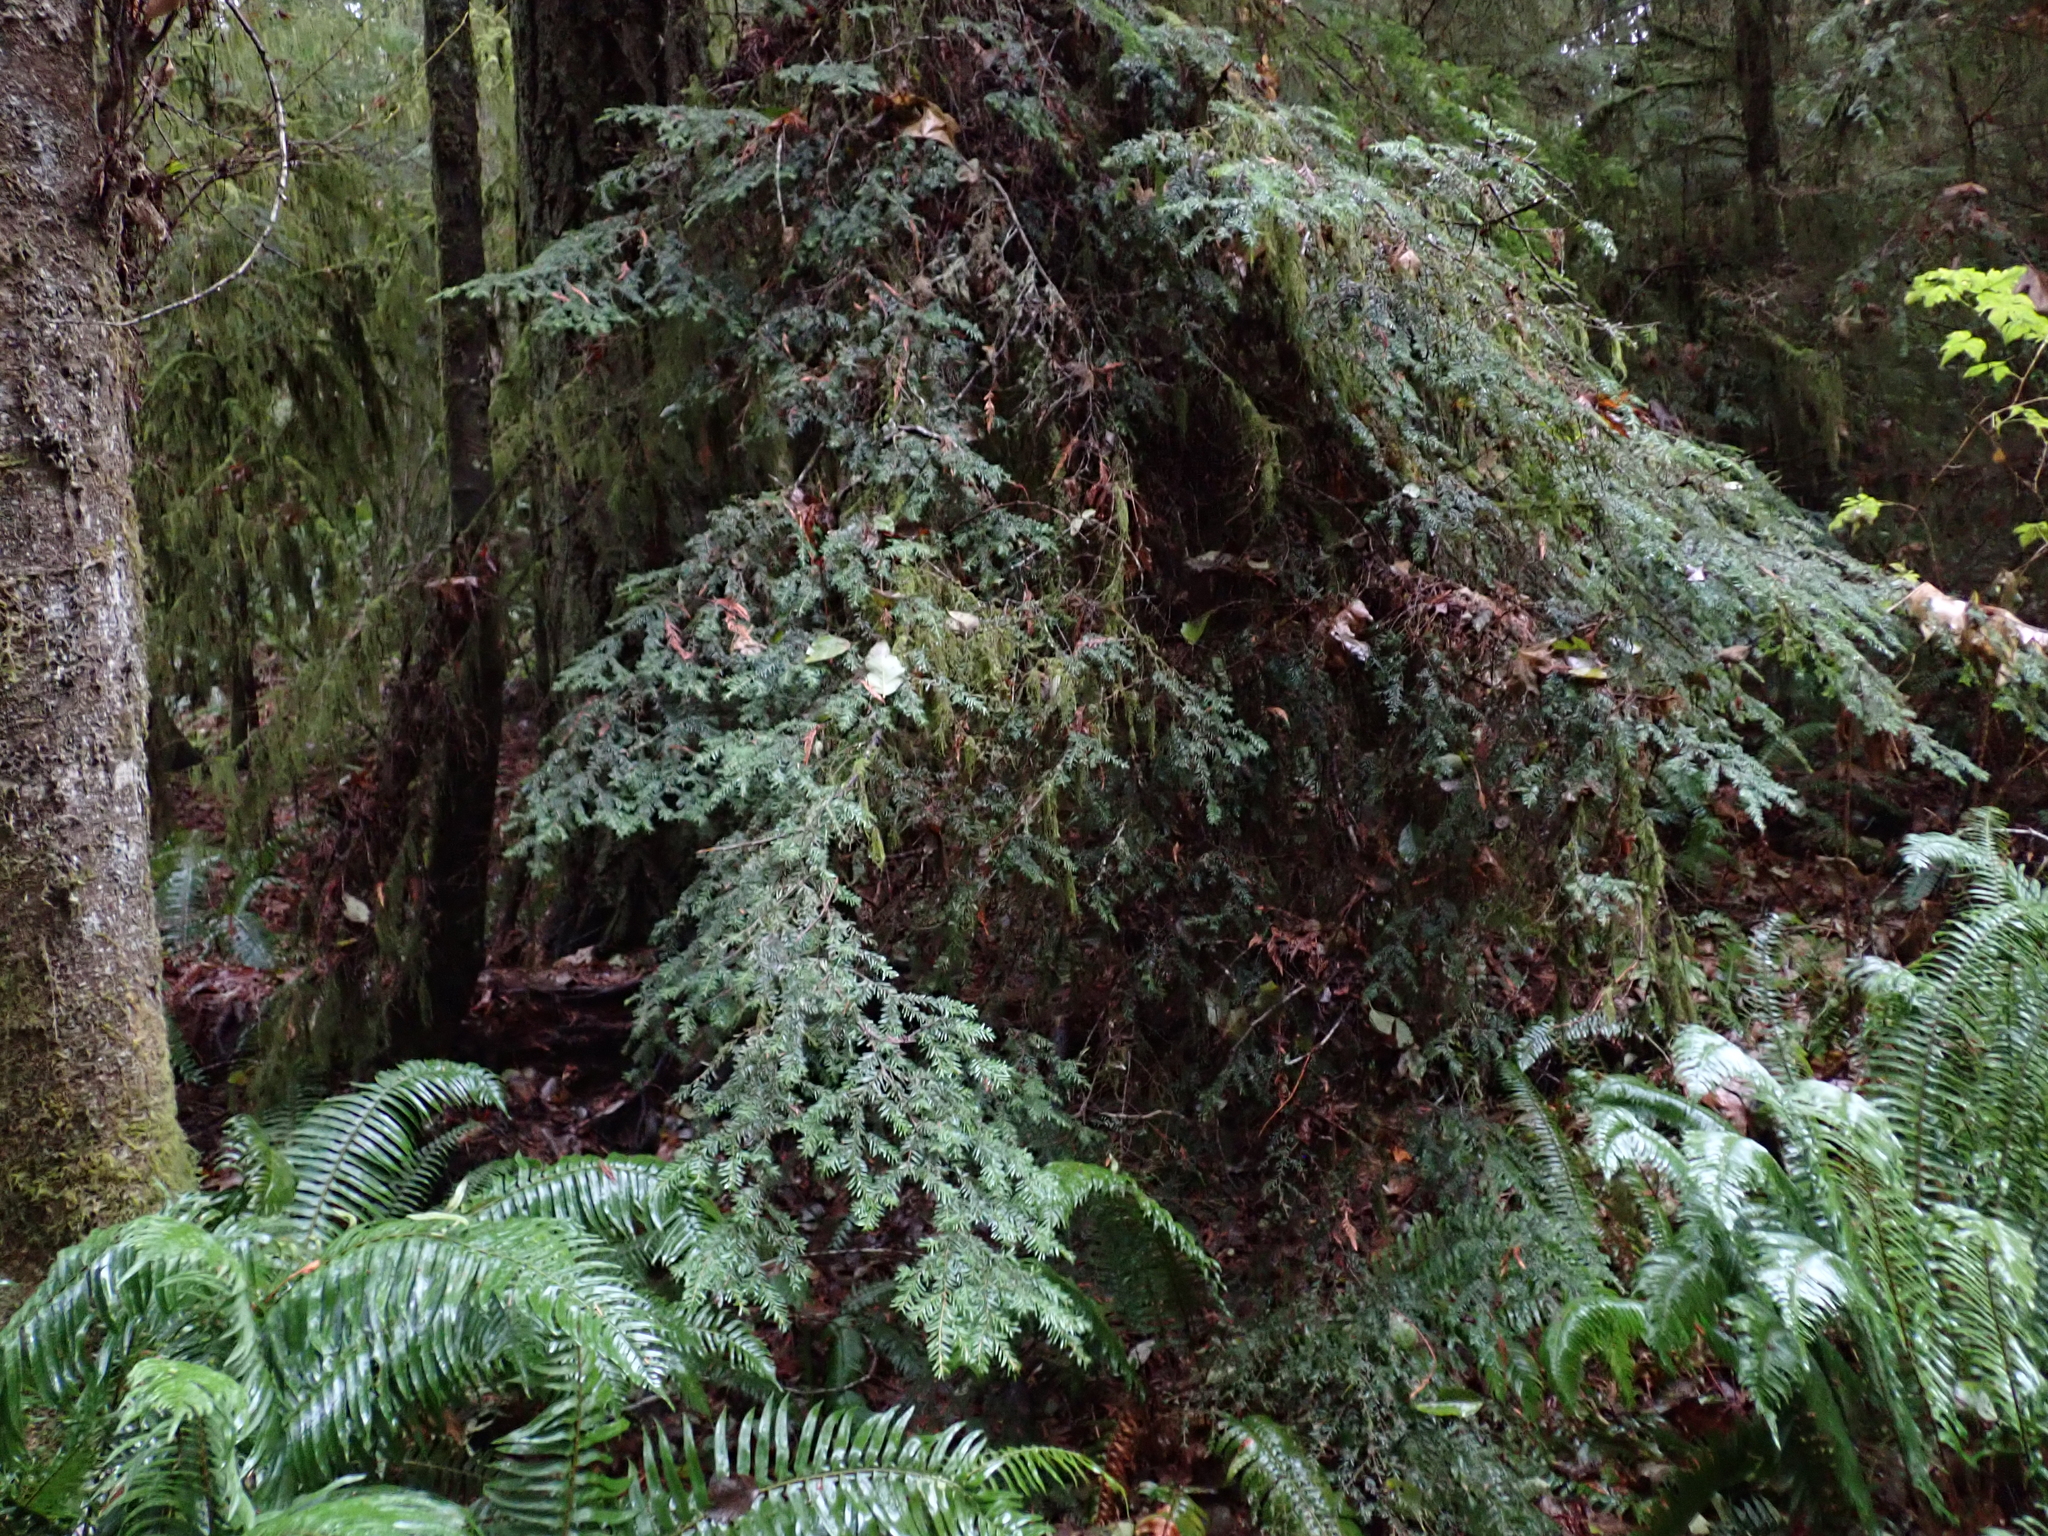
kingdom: Plantae
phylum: Tracheophyta
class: Pinopsida
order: Pinales
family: Pinaceae
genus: Tsuga
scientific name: Tsuga heterophylla
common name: Western hemlock
